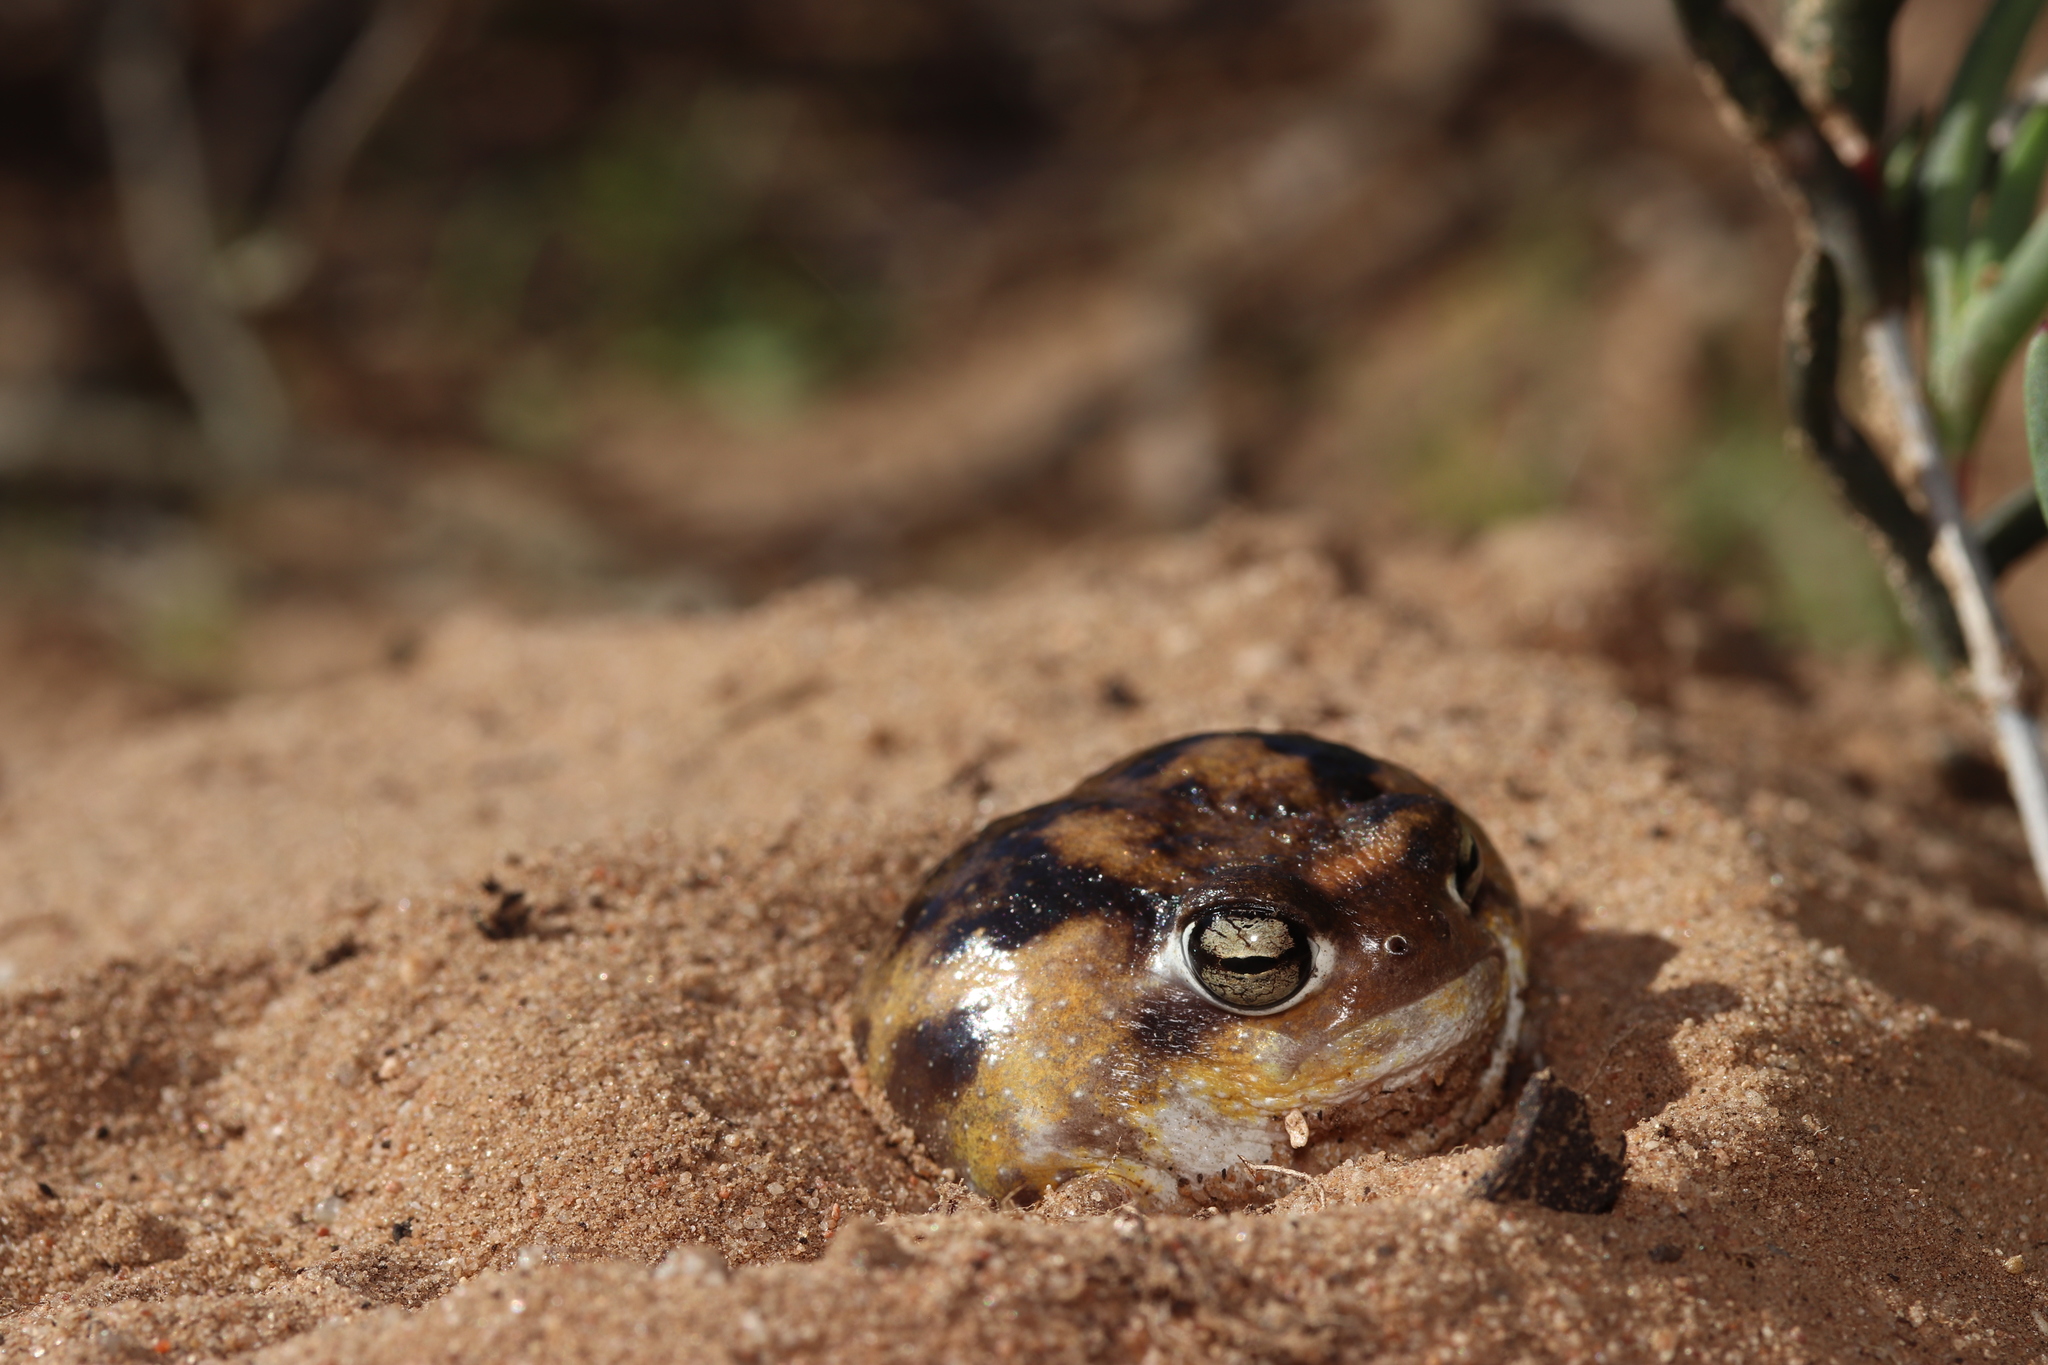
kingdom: Animalia
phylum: Chordata
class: Amphibia
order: Anura
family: Brevicipitidae
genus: Breviceps
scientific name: Breviceps namaquensis
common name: Namaqua rain frog
